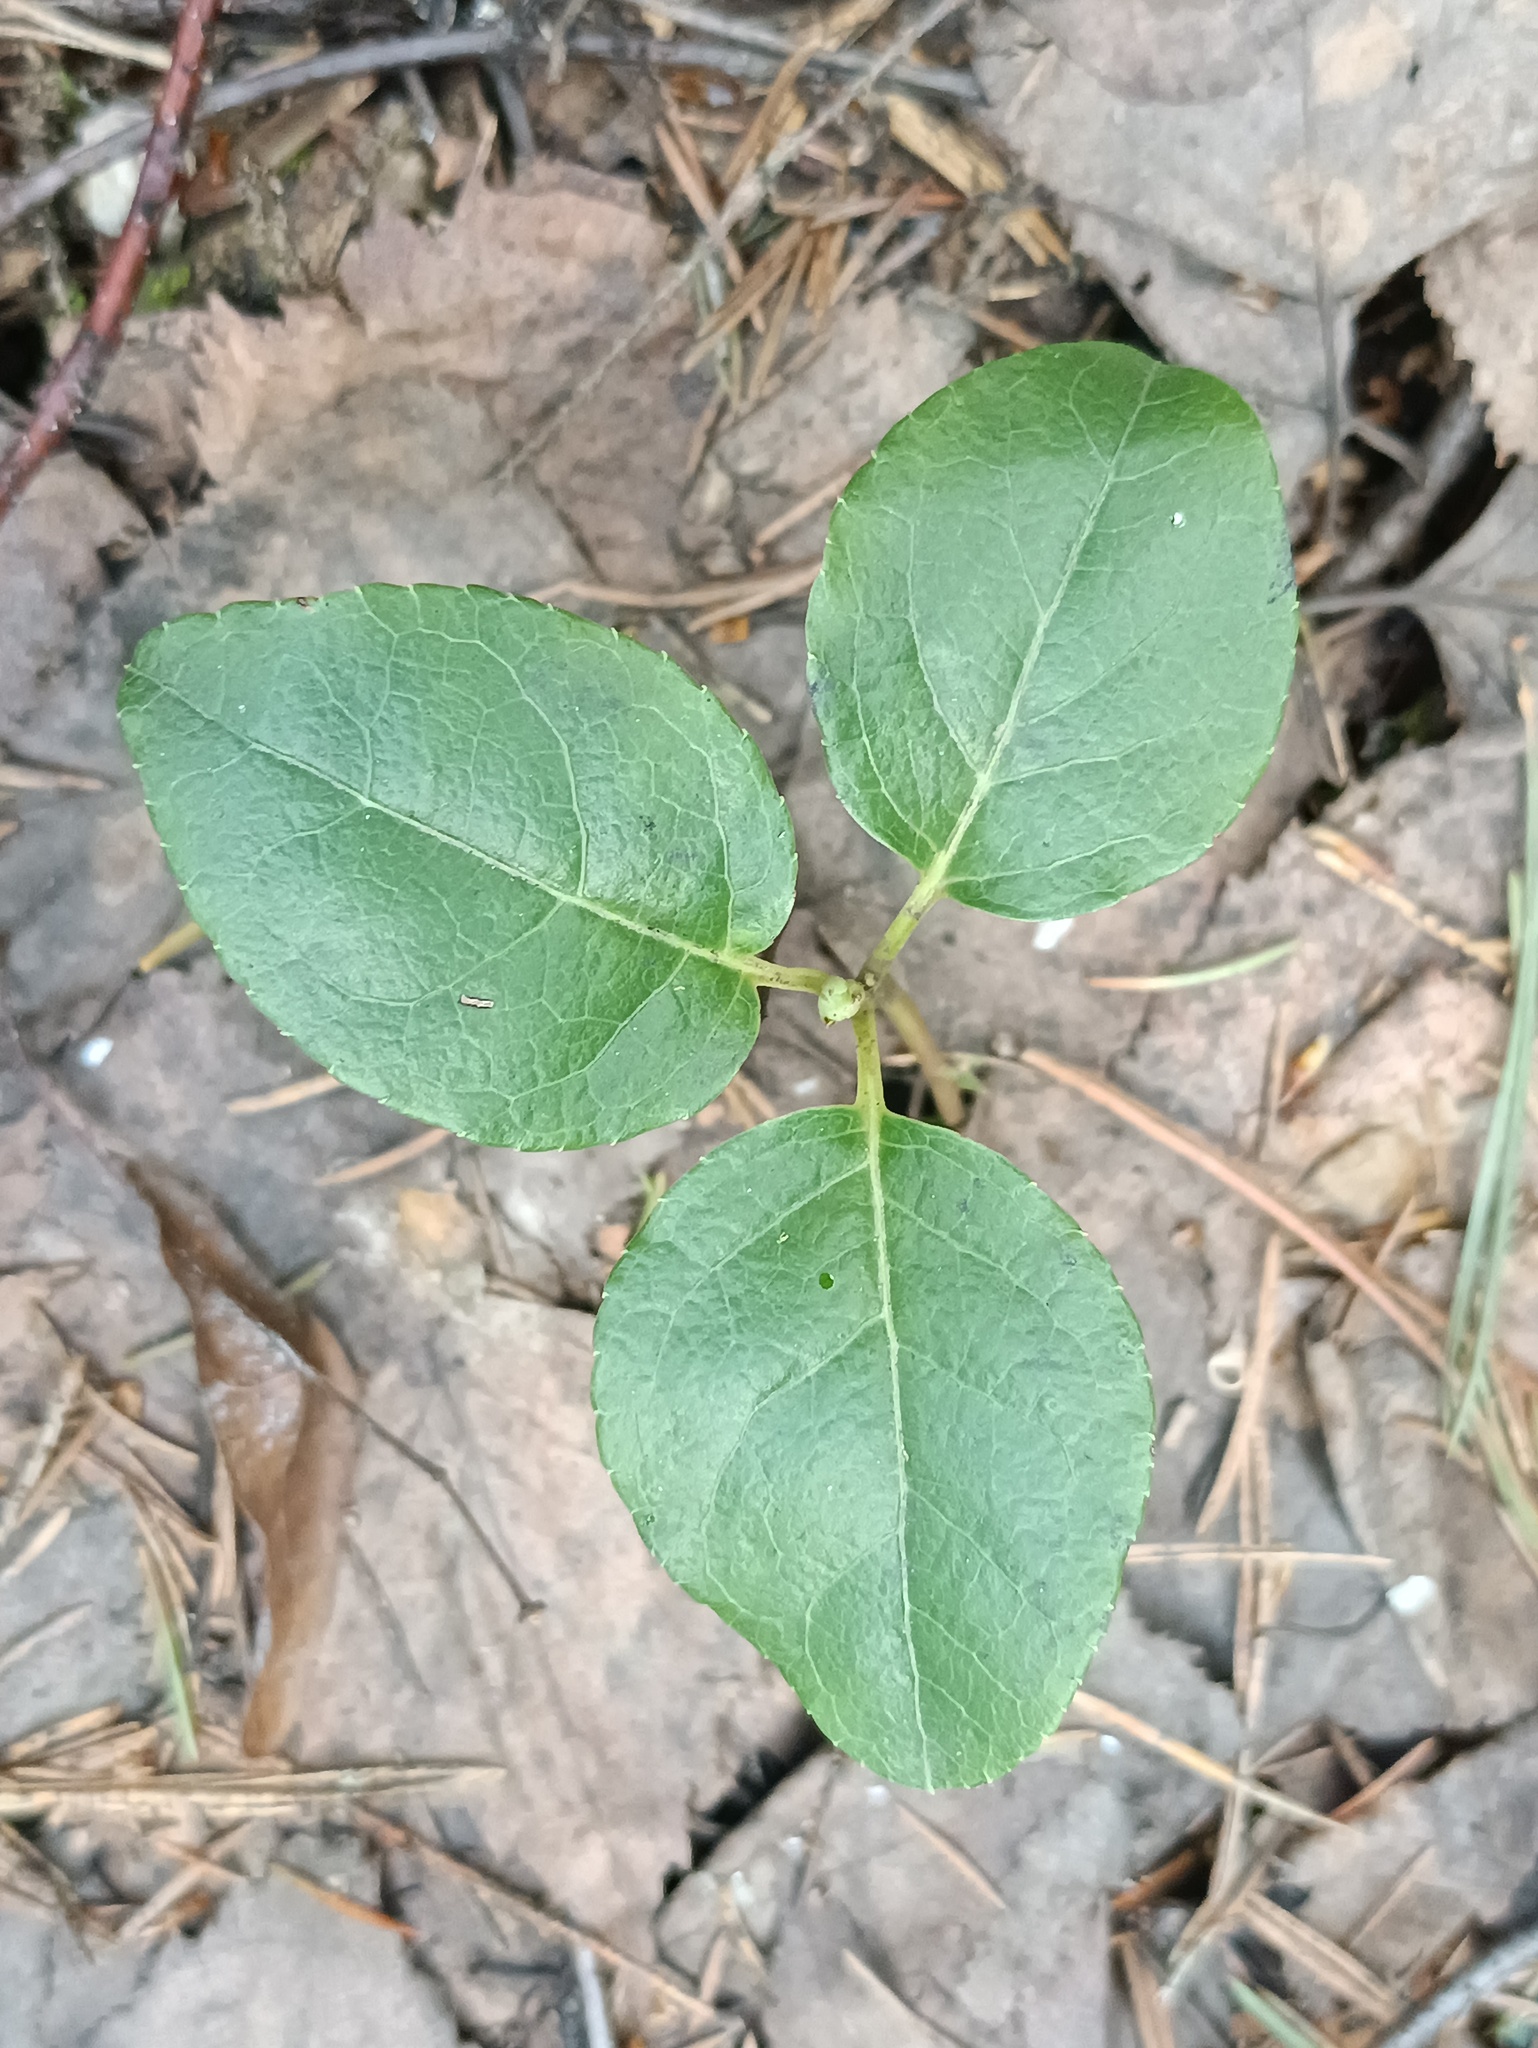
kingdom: Plantae
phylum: Tracheophyta
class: Magnoliopsida
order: Ericales
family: Ericaceae
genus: Orthilia
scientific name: Orthilia secunda
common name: One-sided orthilia
